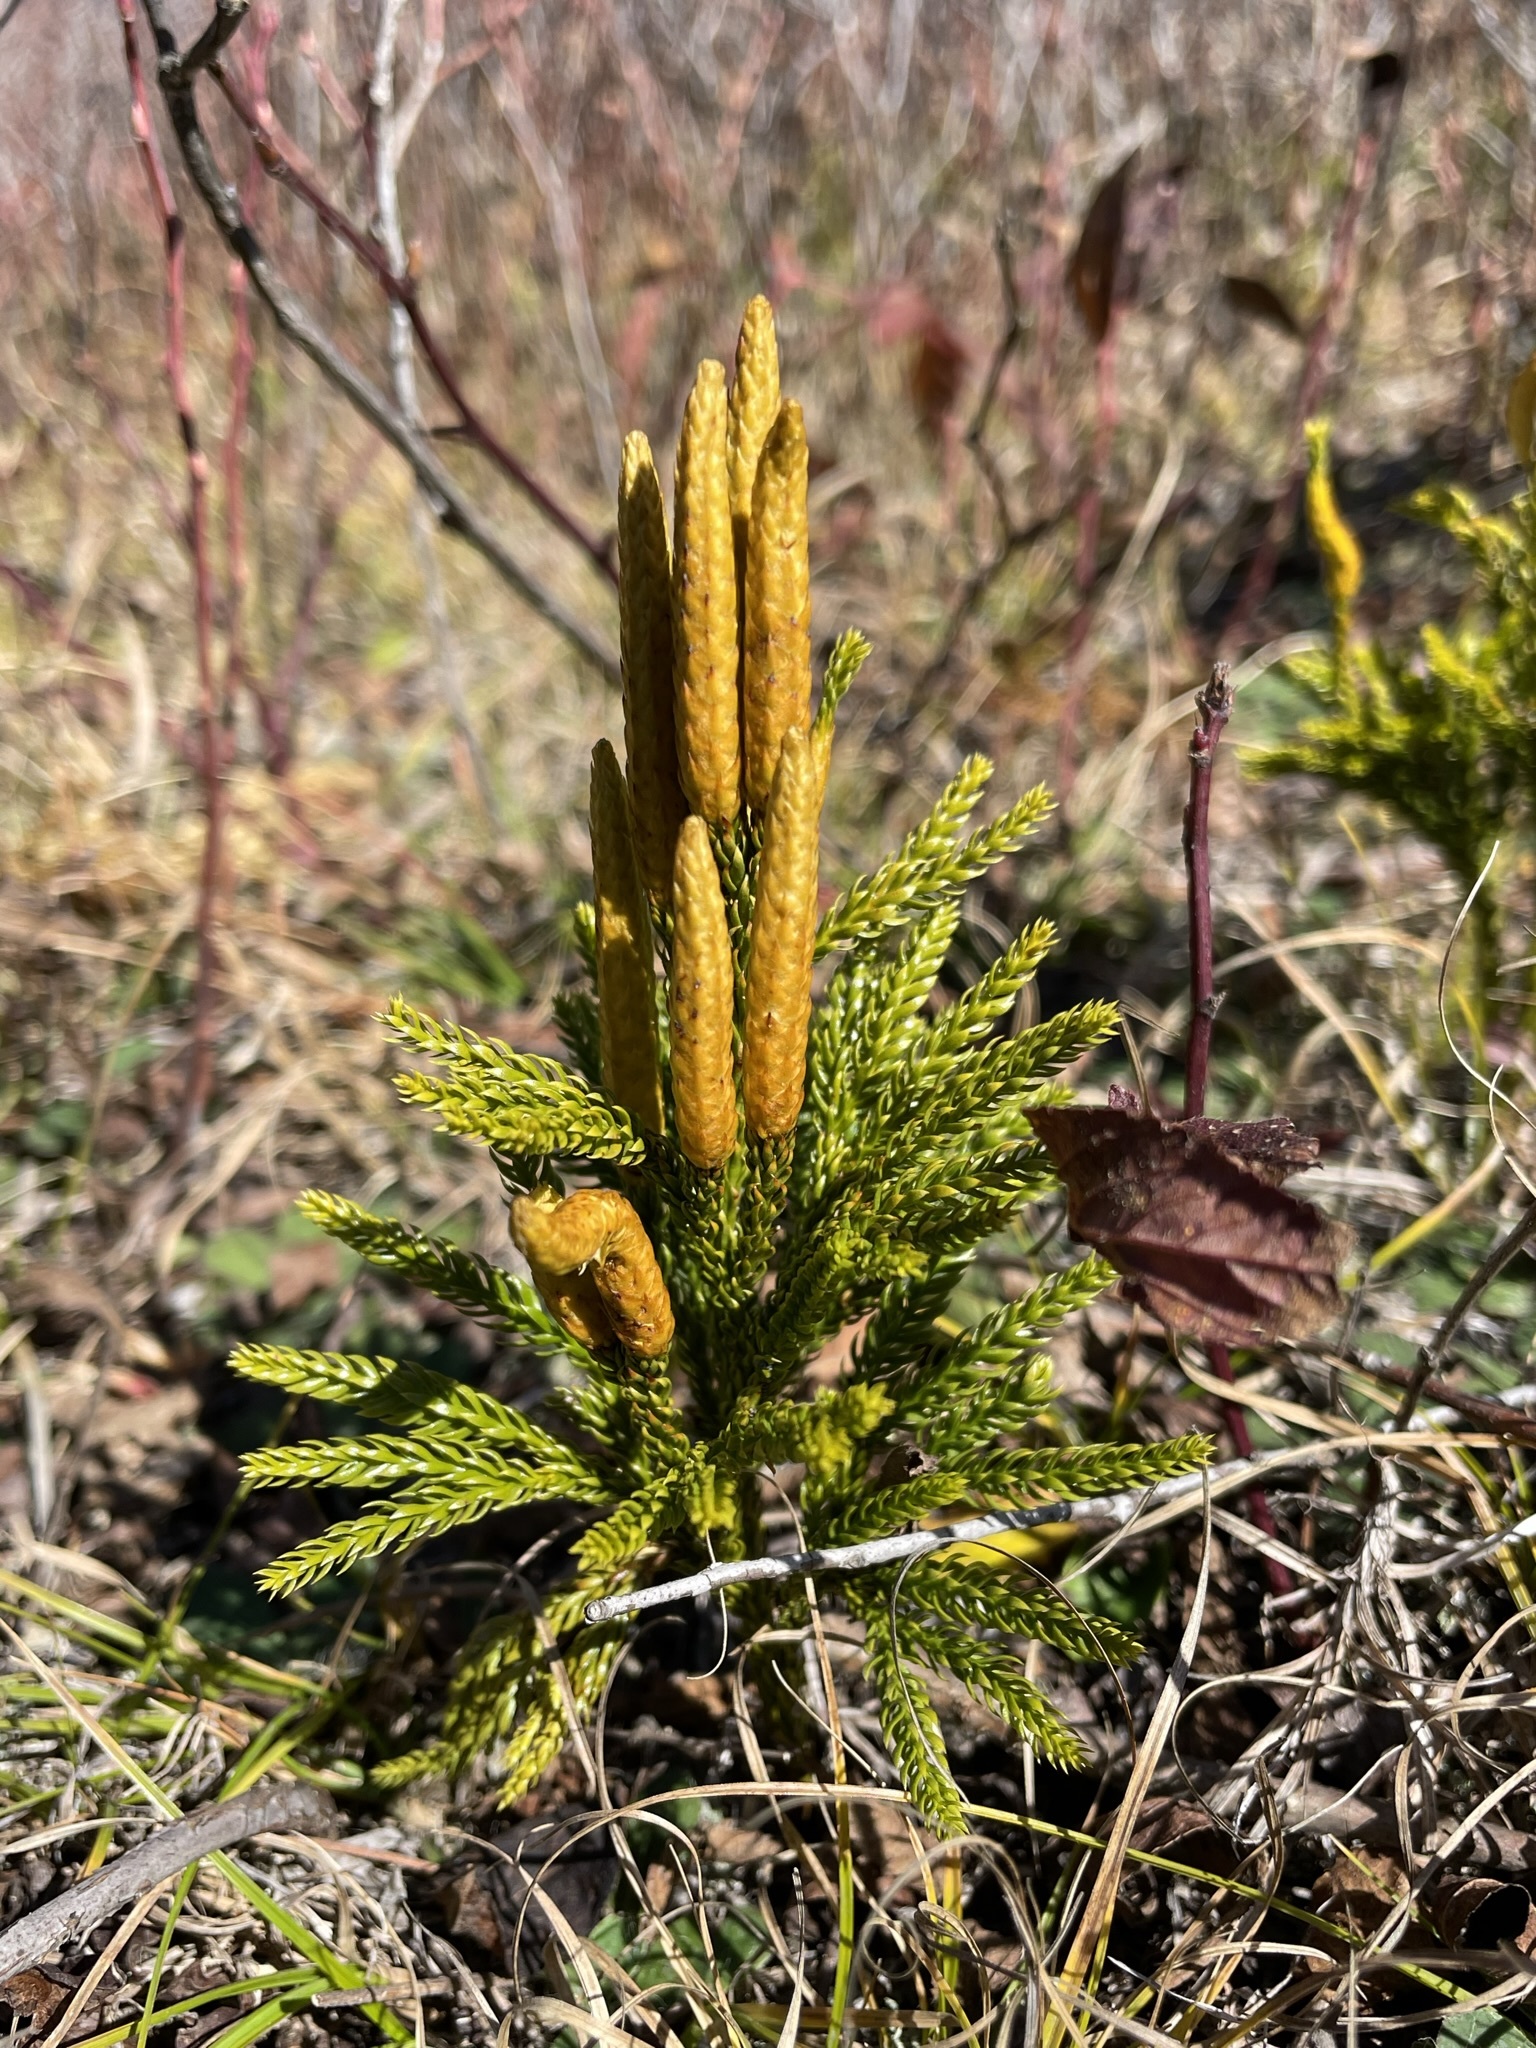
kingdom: Plantae
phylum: Tracheophyta
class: Lycopodiopsida
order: Lycopodiales
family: Lycopodiaceae
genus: Dendrolycopodium
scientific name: Dendrolycopodium hickeyi
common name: Hickey's clubmoss
